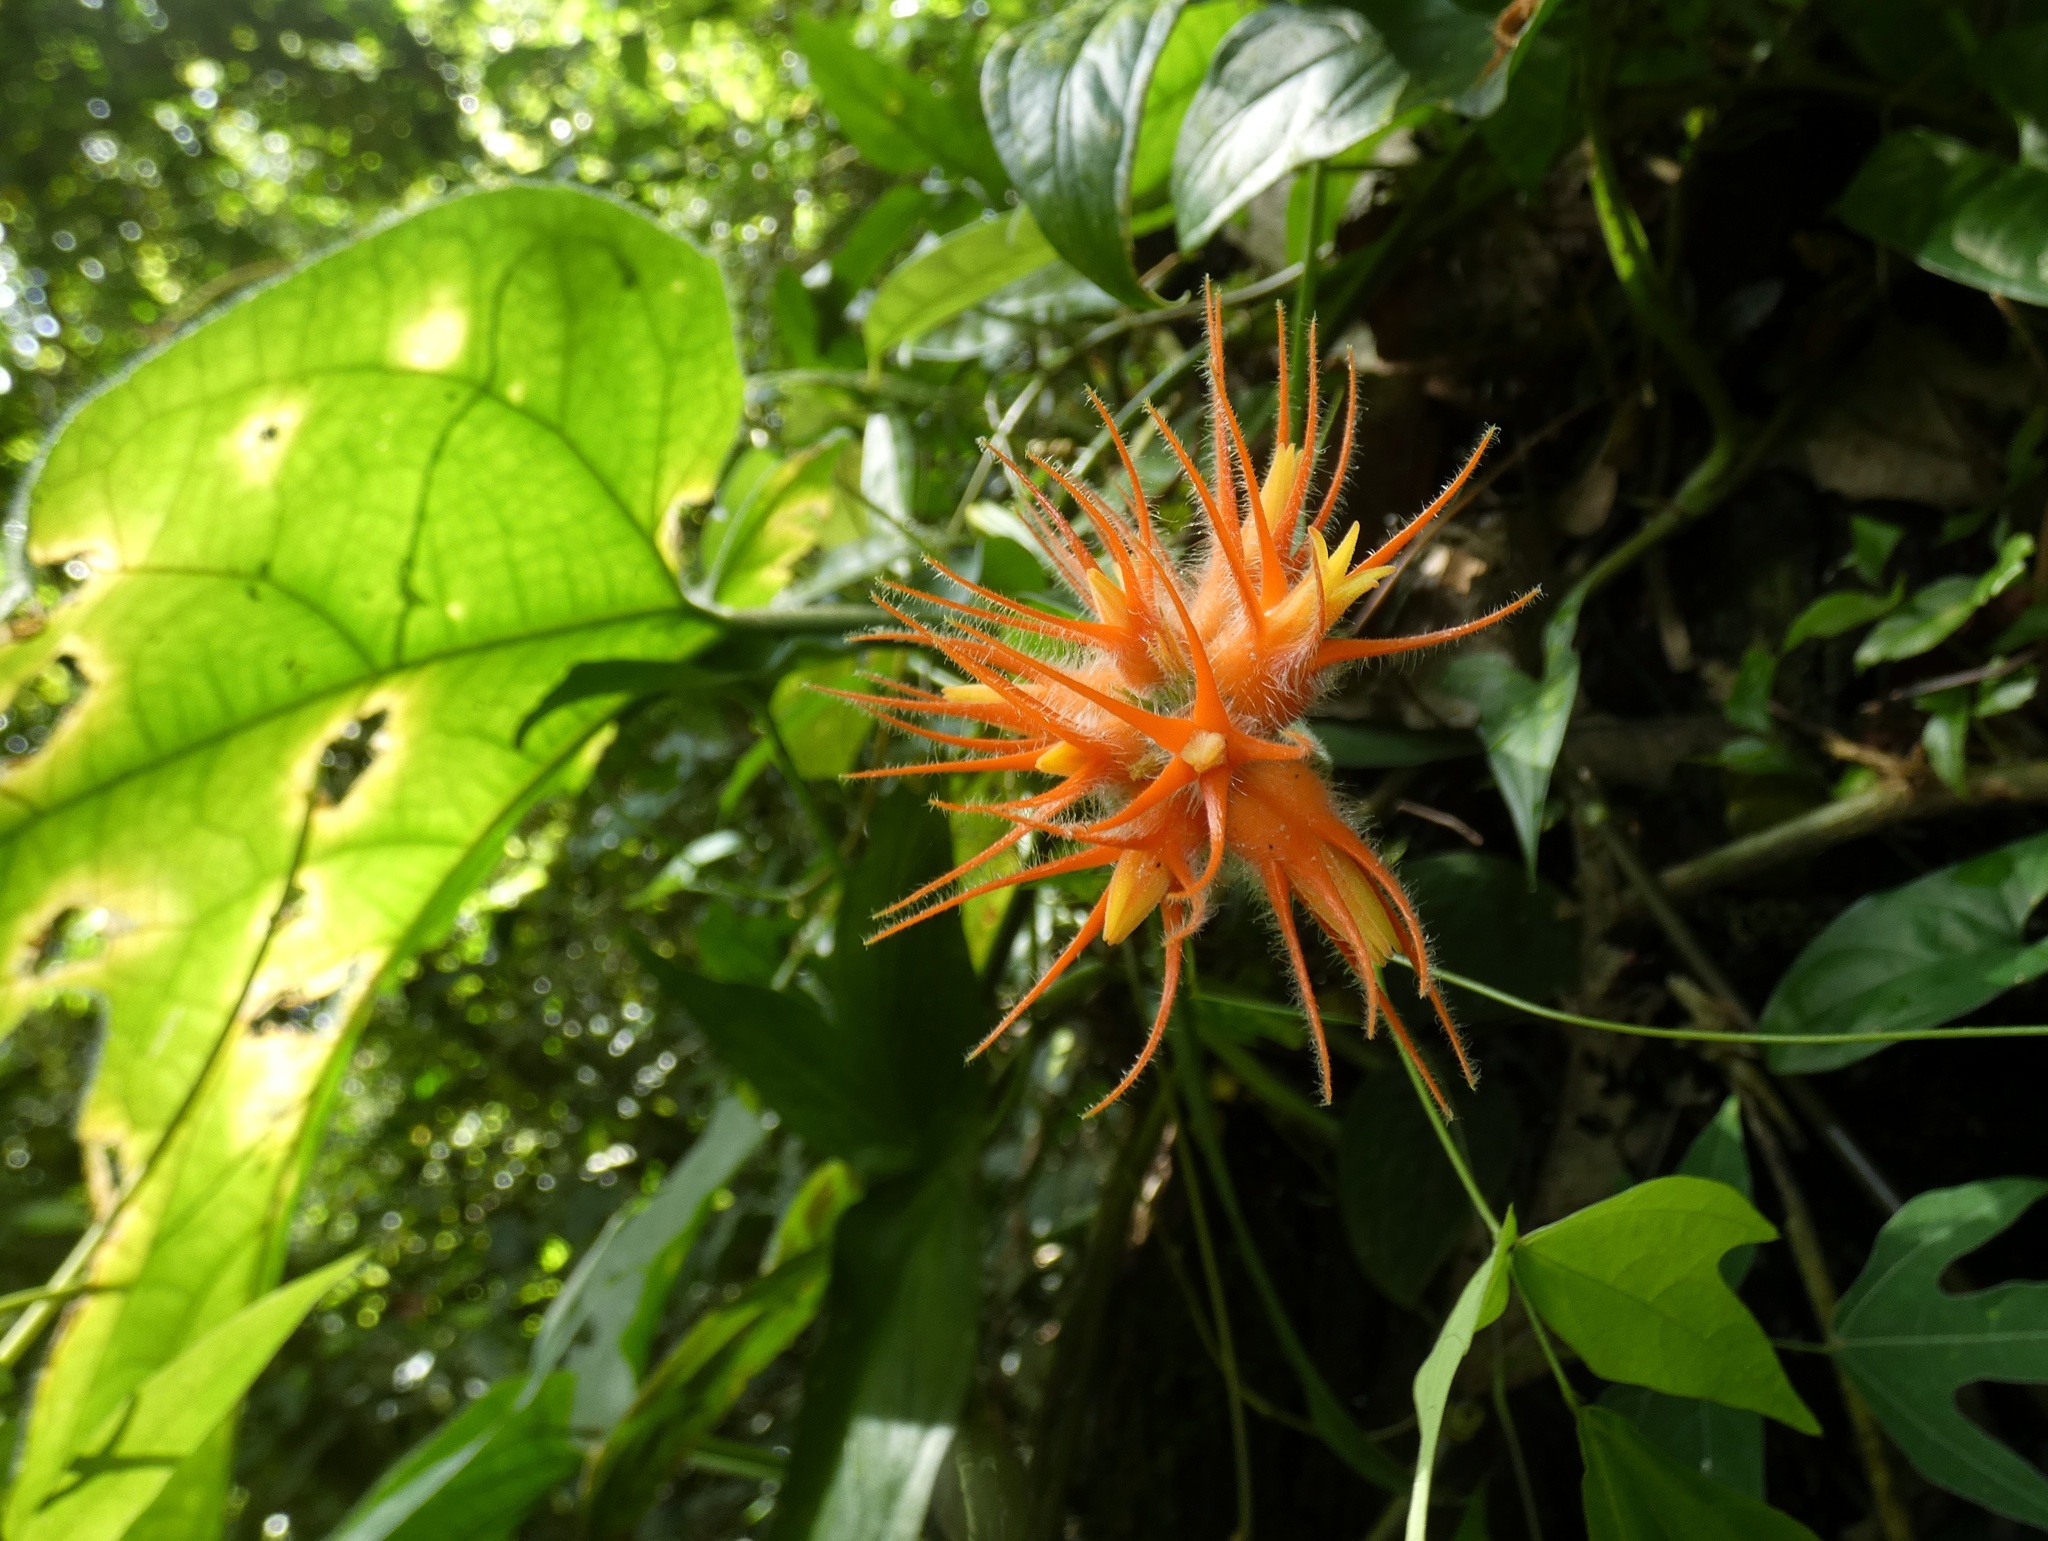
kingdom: Plantae
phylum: Tracheophyta
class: Magnoliopsida
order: Cucurbitales
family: Cucurbitaceae
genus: Gurania
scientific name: Gurania makoyana
